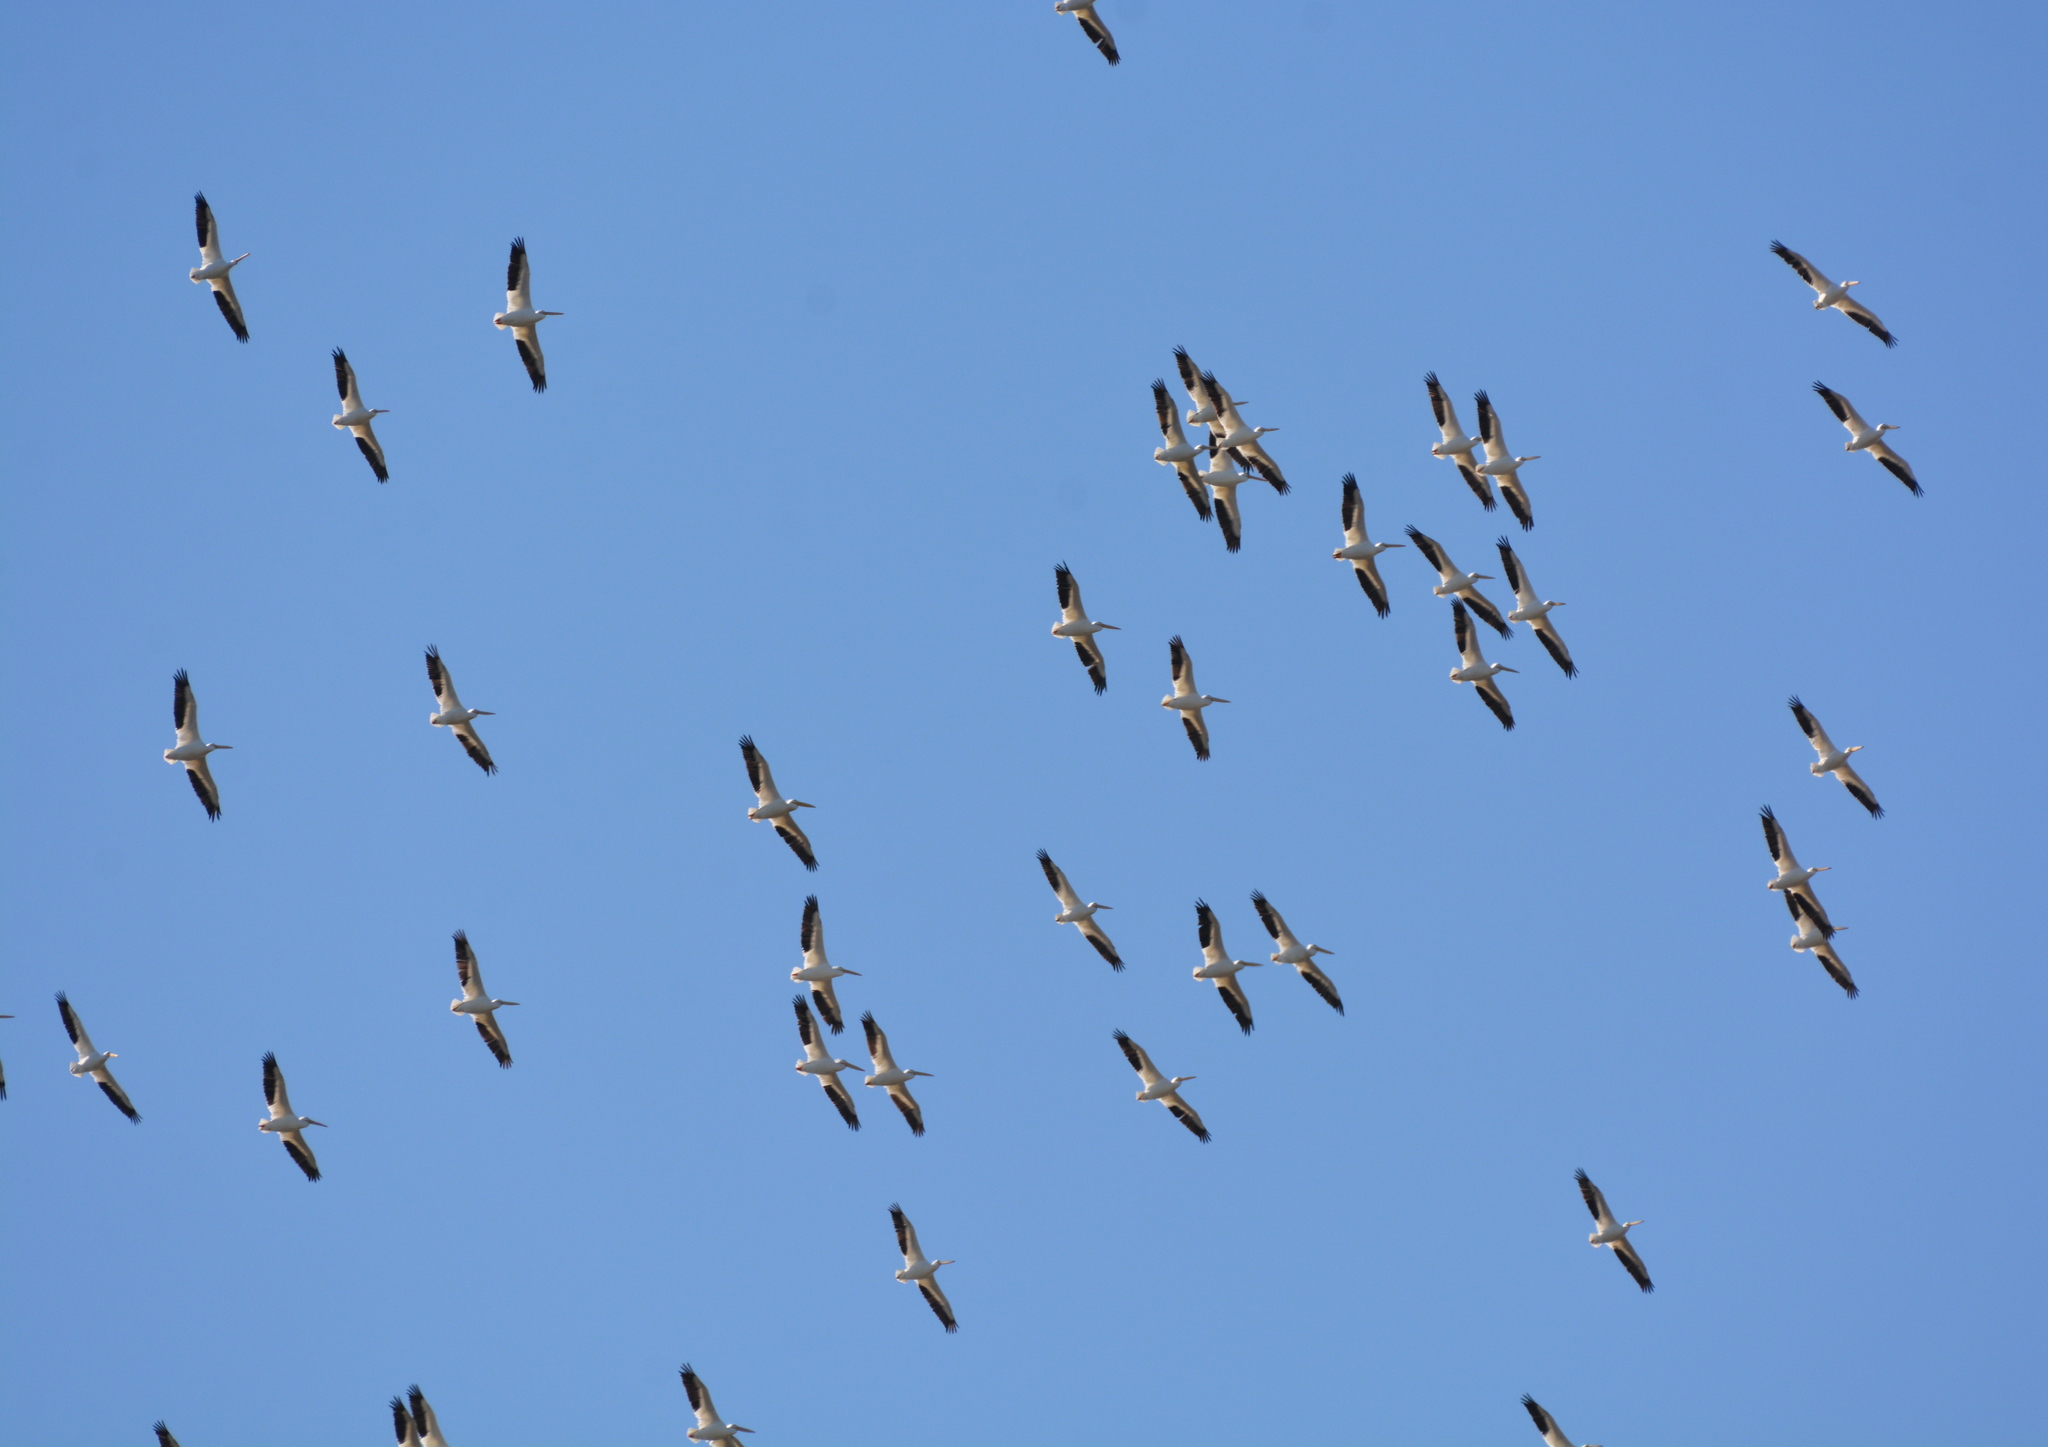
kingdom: Animalia
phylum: Chordata
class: Aves
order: Pelecaniformes
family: Pelecanidae
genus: Pelecanus
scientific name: Pelecanus erythrorhynchos
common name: American white pelican
